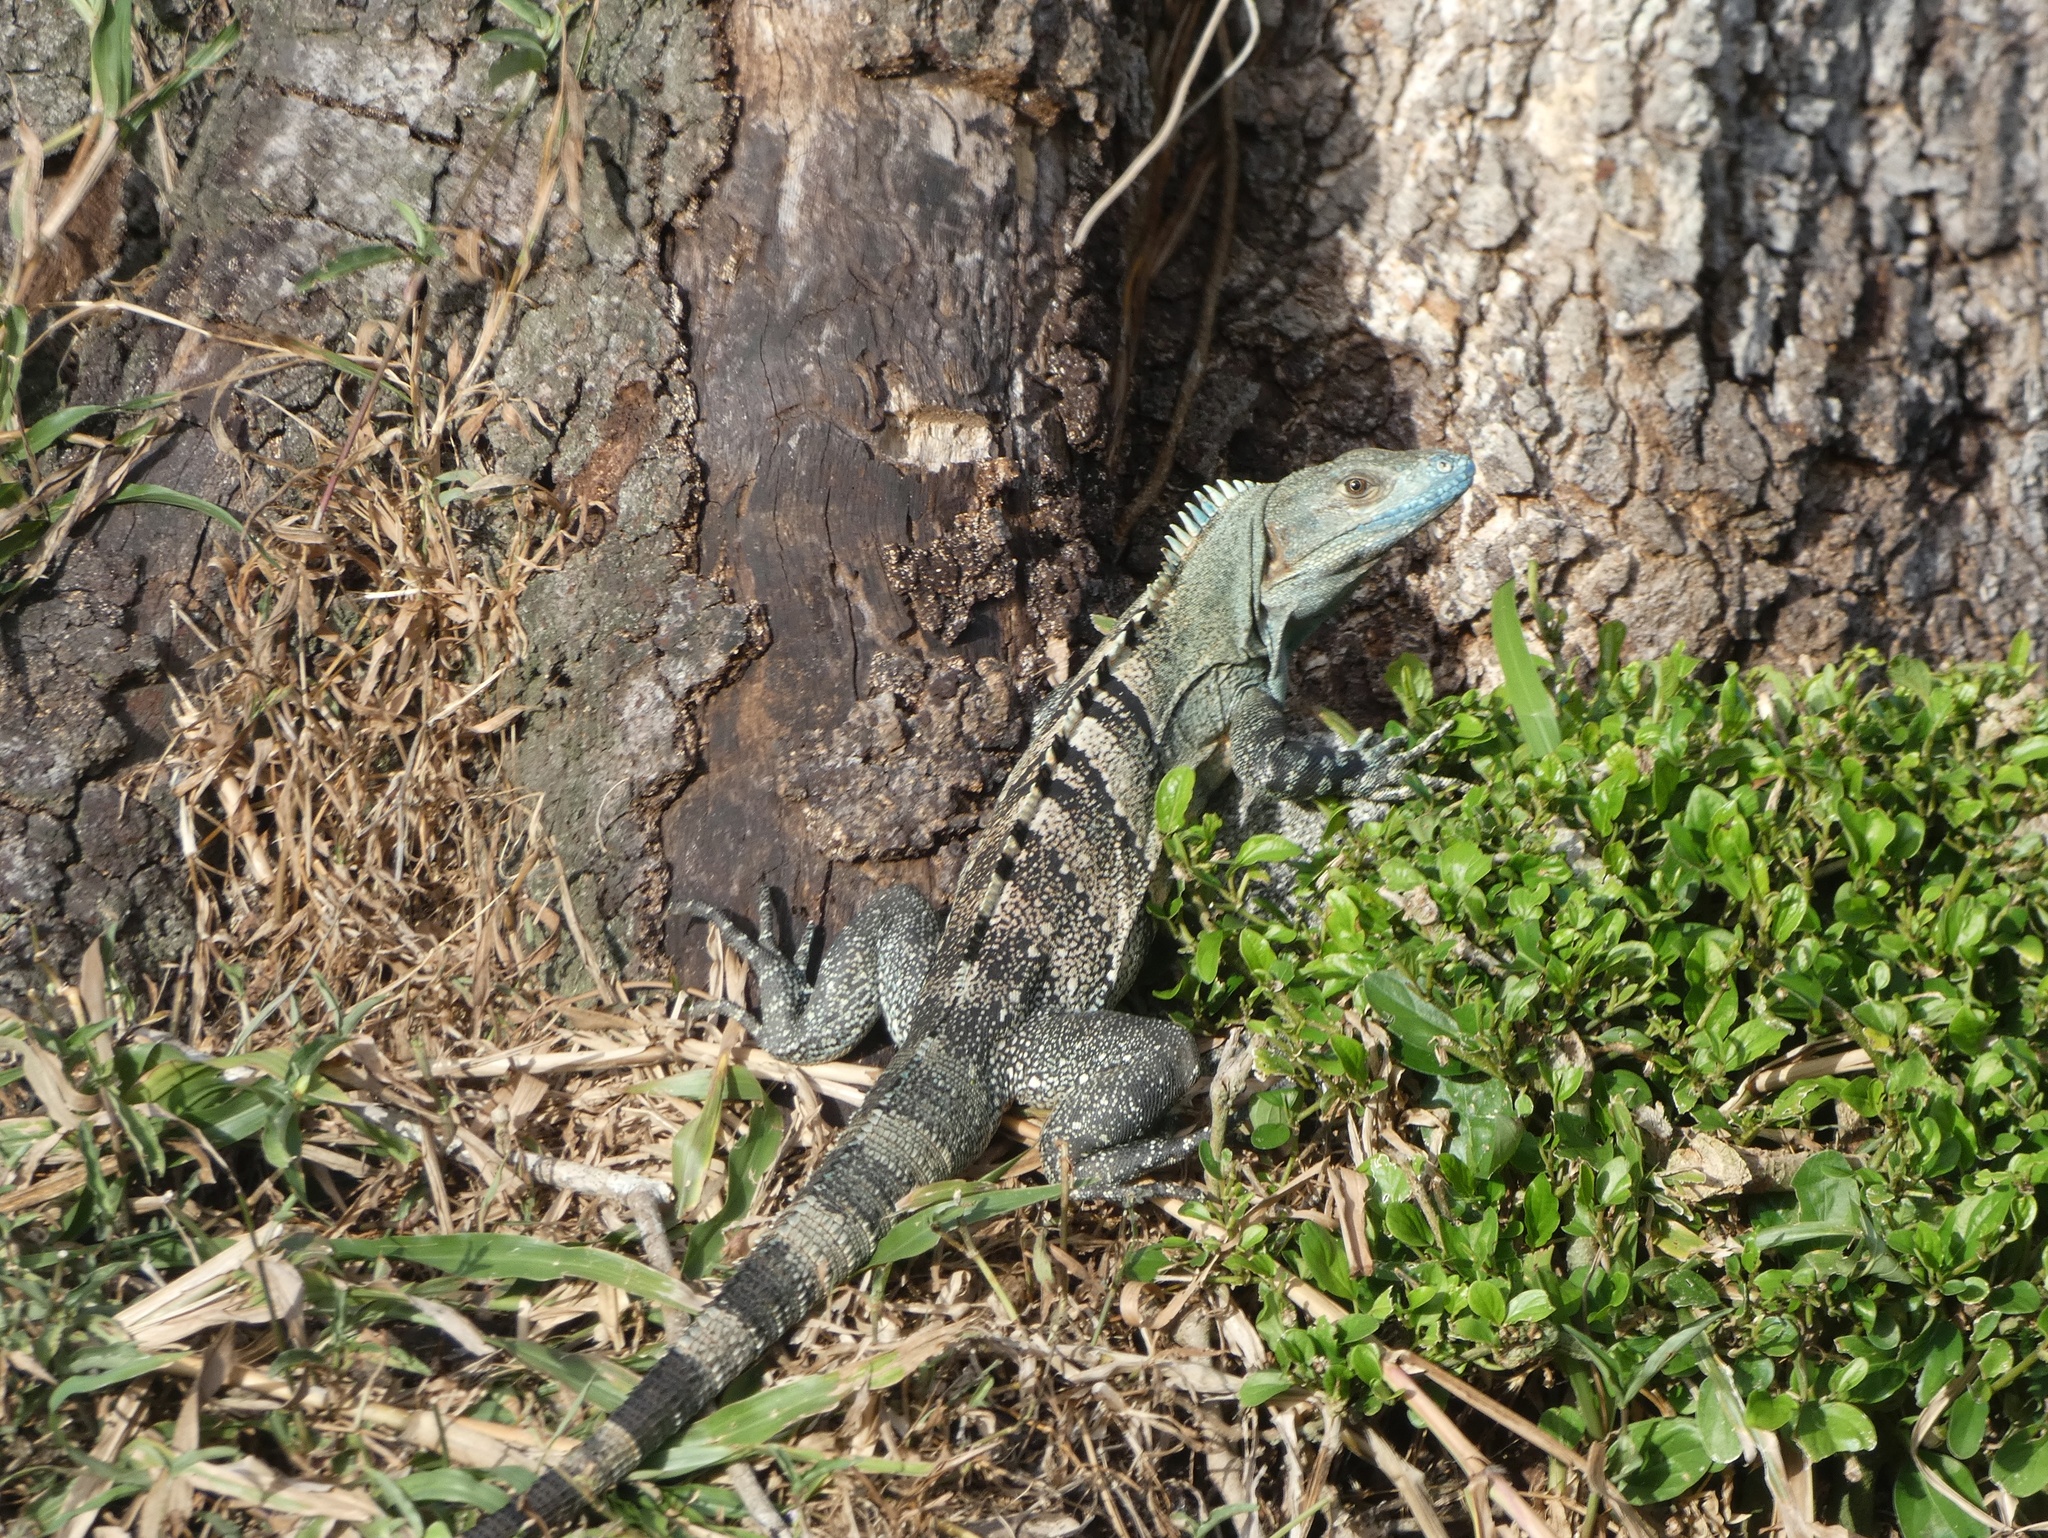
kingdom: Animalia
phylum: Chordata
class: Squamata
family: Iguanidae
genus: Ctenosaura
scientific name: Ctenosaura similis
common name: Black spiny-tailed iguana
